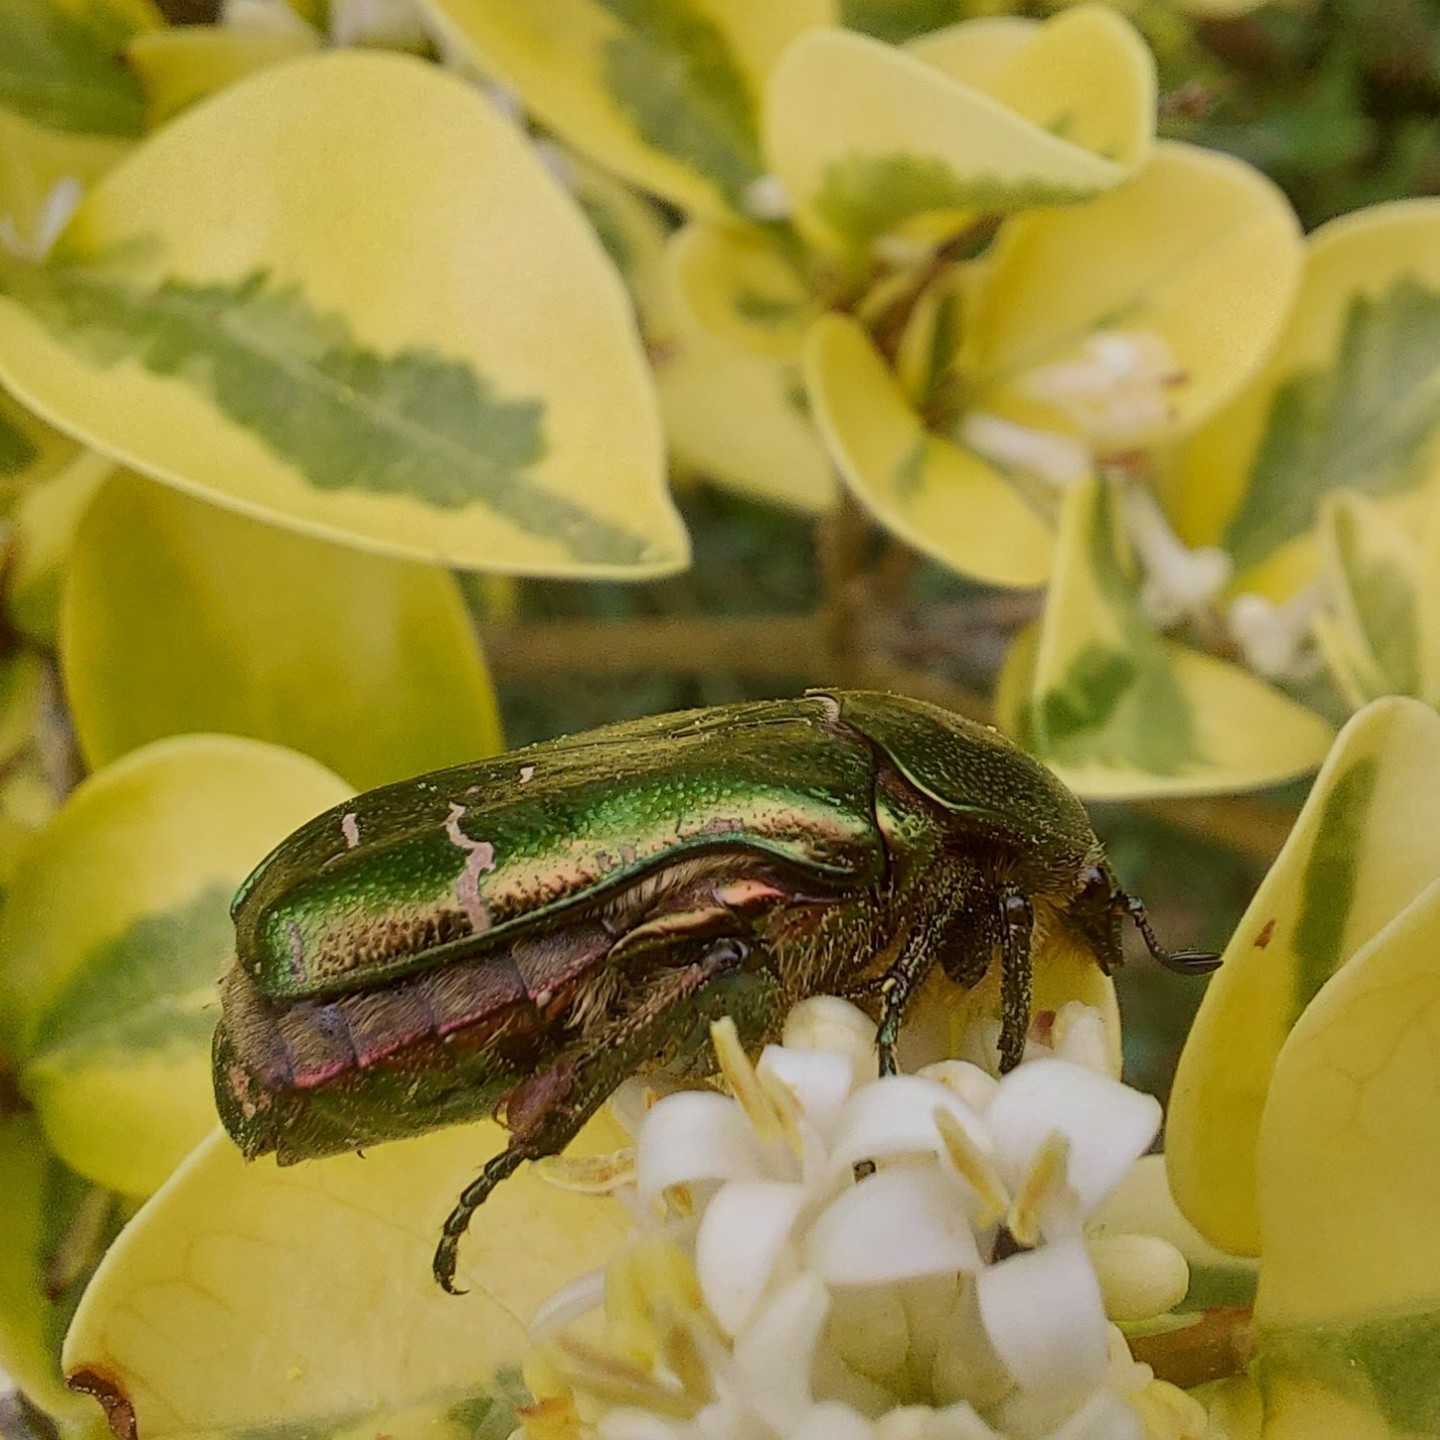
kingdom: Animalia
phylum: Arthropoda
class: Insecta
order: Coleoptera
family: Scarabaeidae
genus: Cetonia
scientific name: Cetonia aurata
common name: Rose chafer
